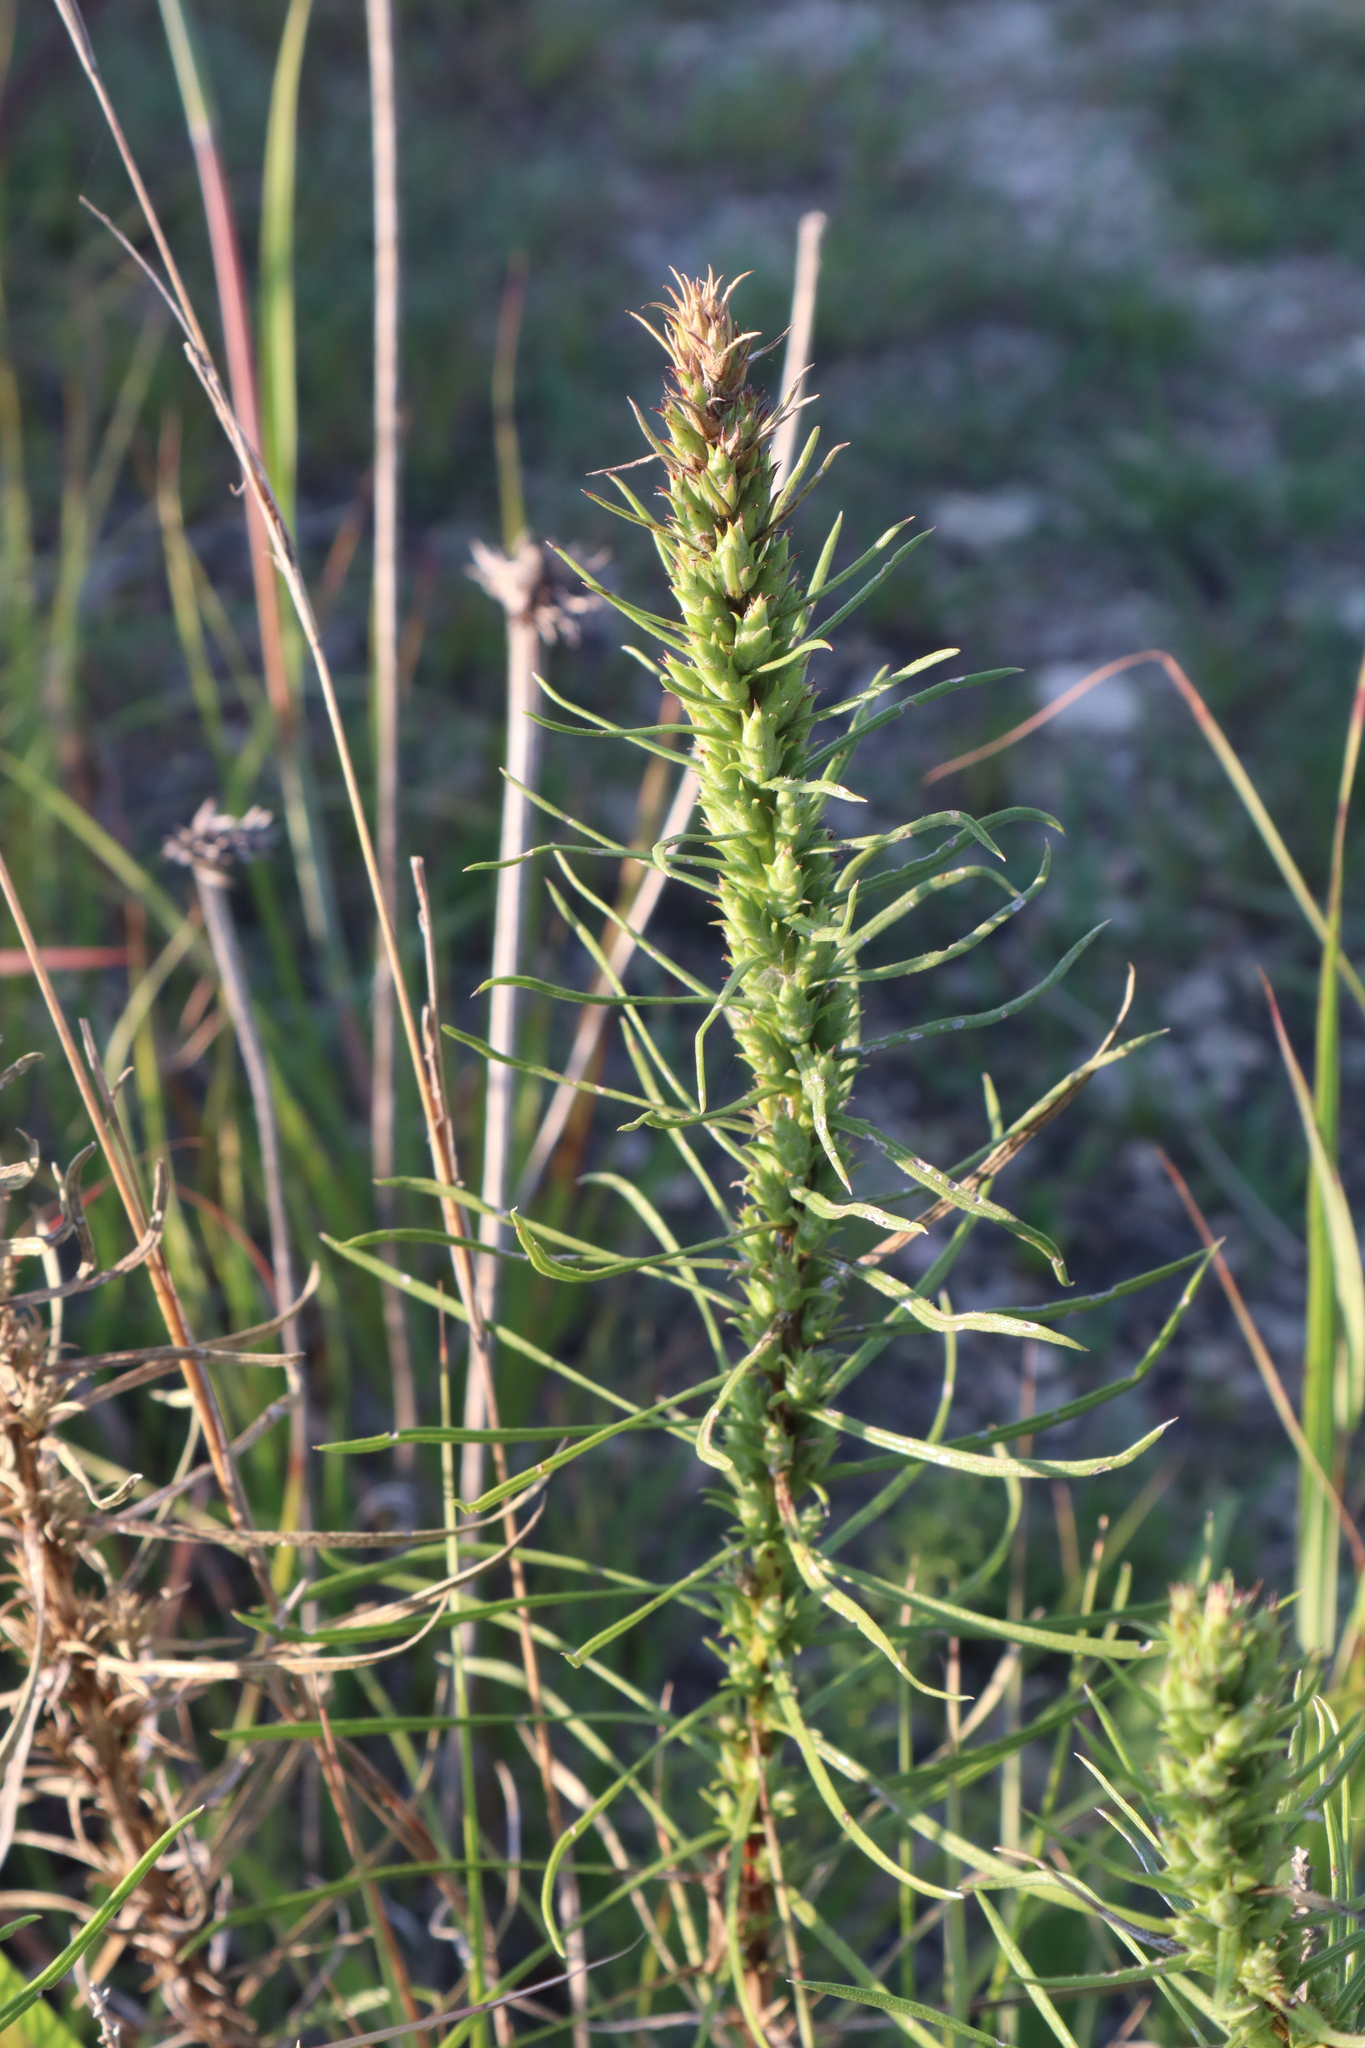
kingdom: Plantae
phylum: Tracheophyta
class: Magnoliopsida
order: Asterales
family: Asteraceae
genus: Liatris
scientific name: Liatris punctata
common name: Dotted gayfeather
